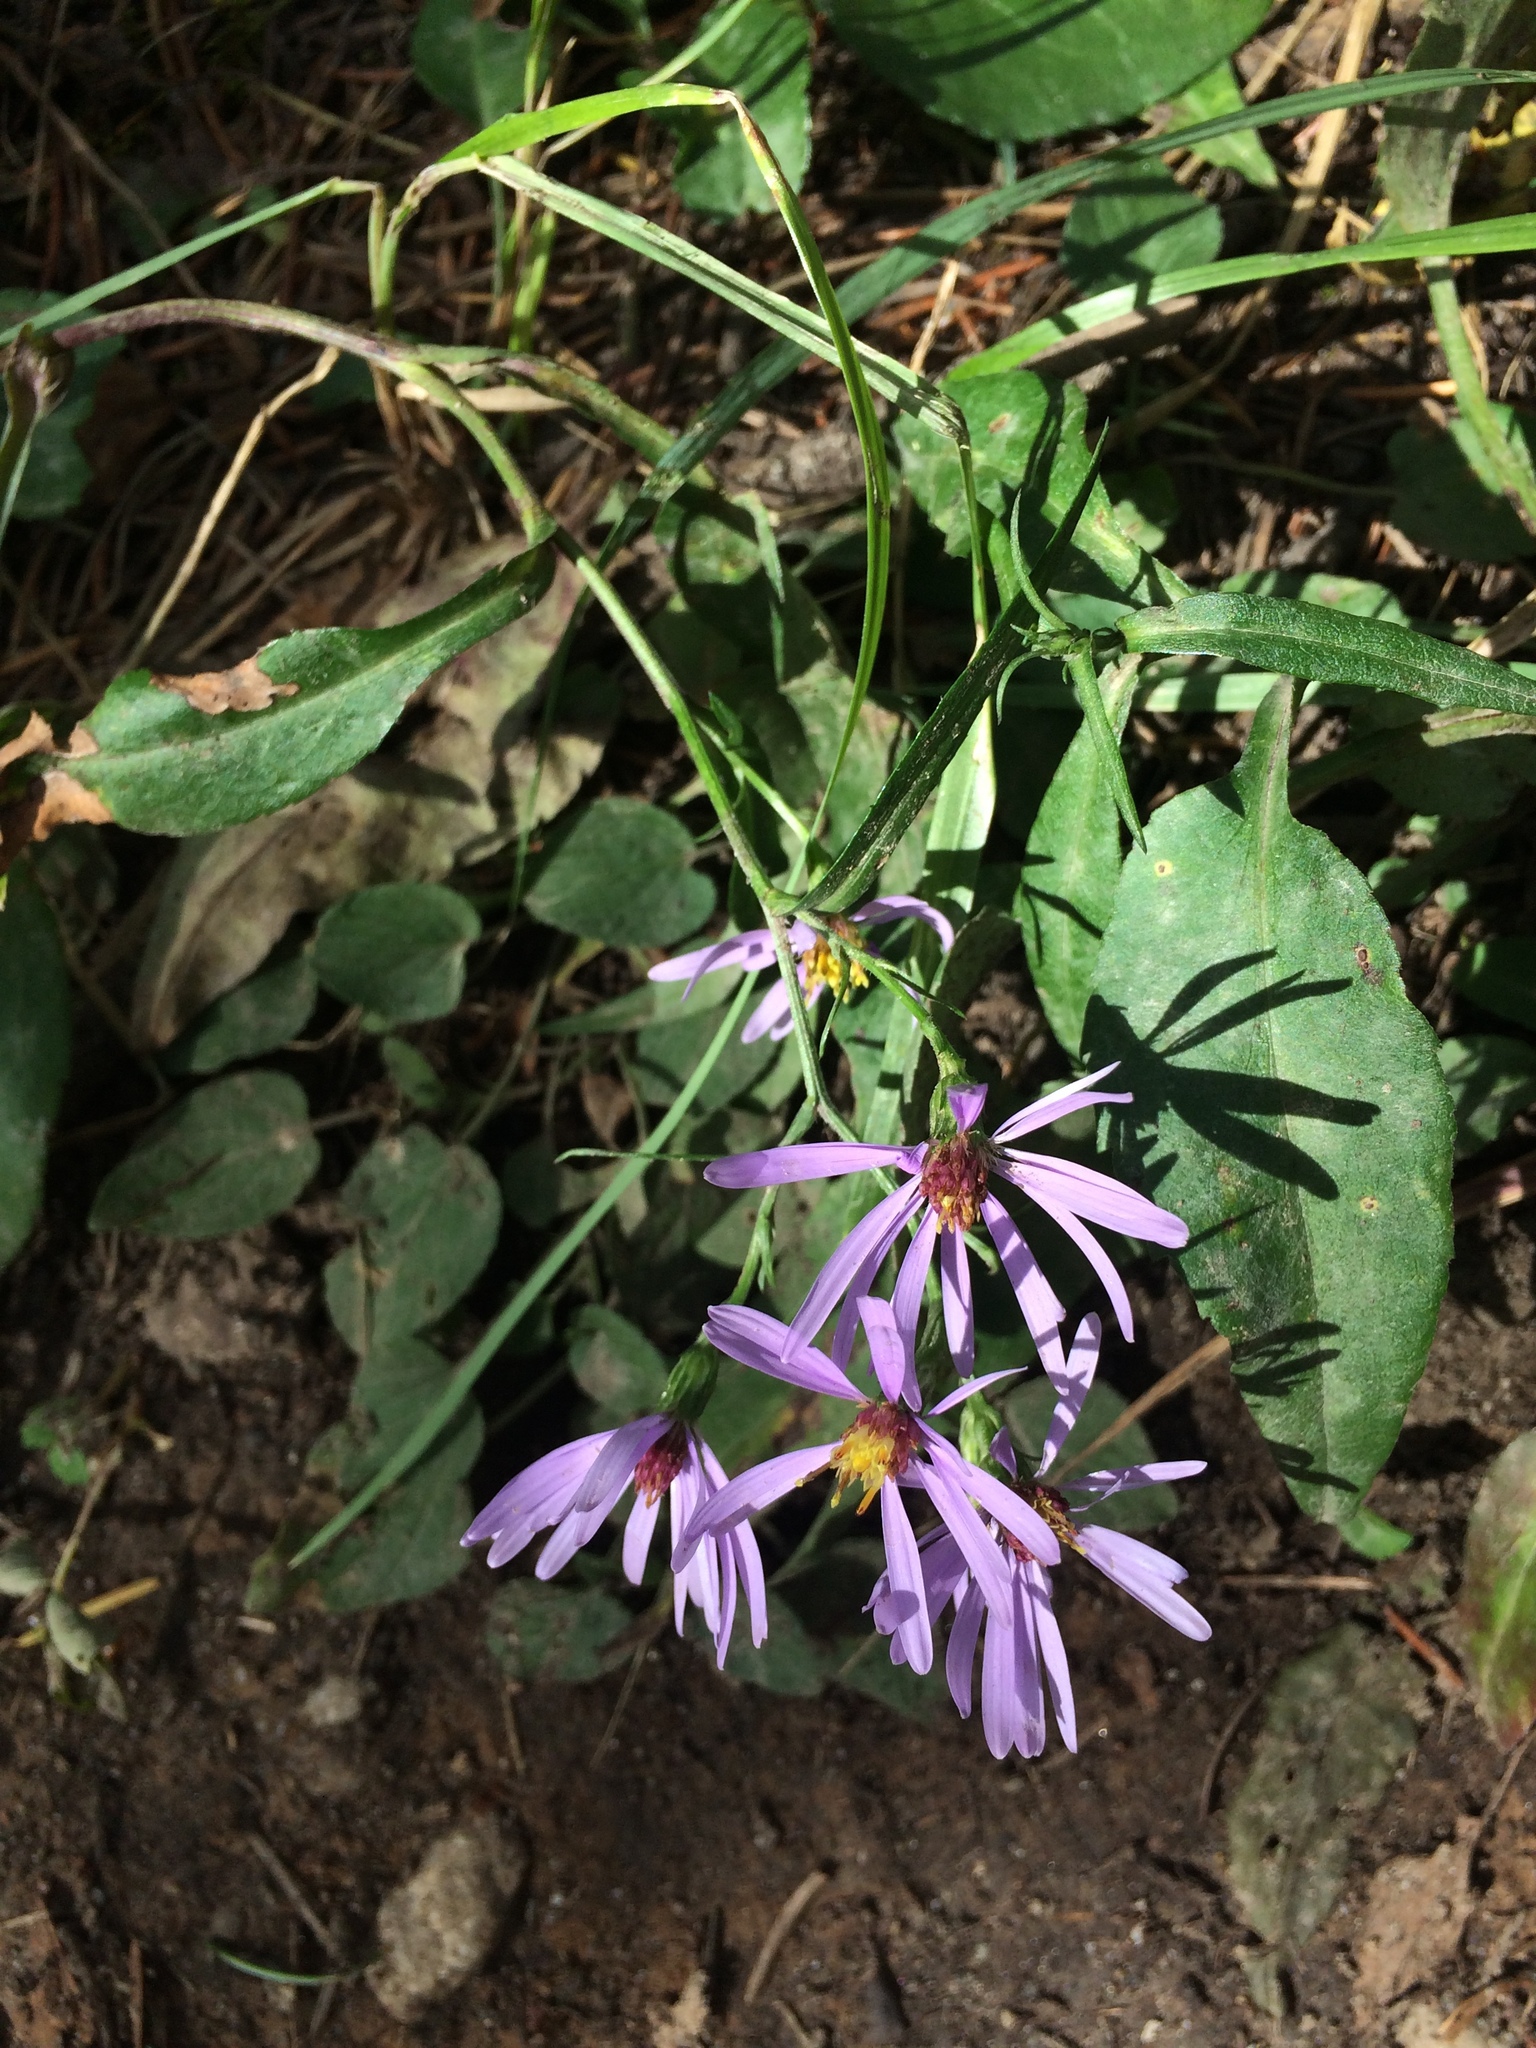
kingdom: Plantae
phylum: Tracheophyta
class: Magnoliopsida
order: Asterales
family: Asteraceae
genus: Symphyotrichum
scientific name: Symphyotrichum ciliolatum
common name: Fringed blue aster
